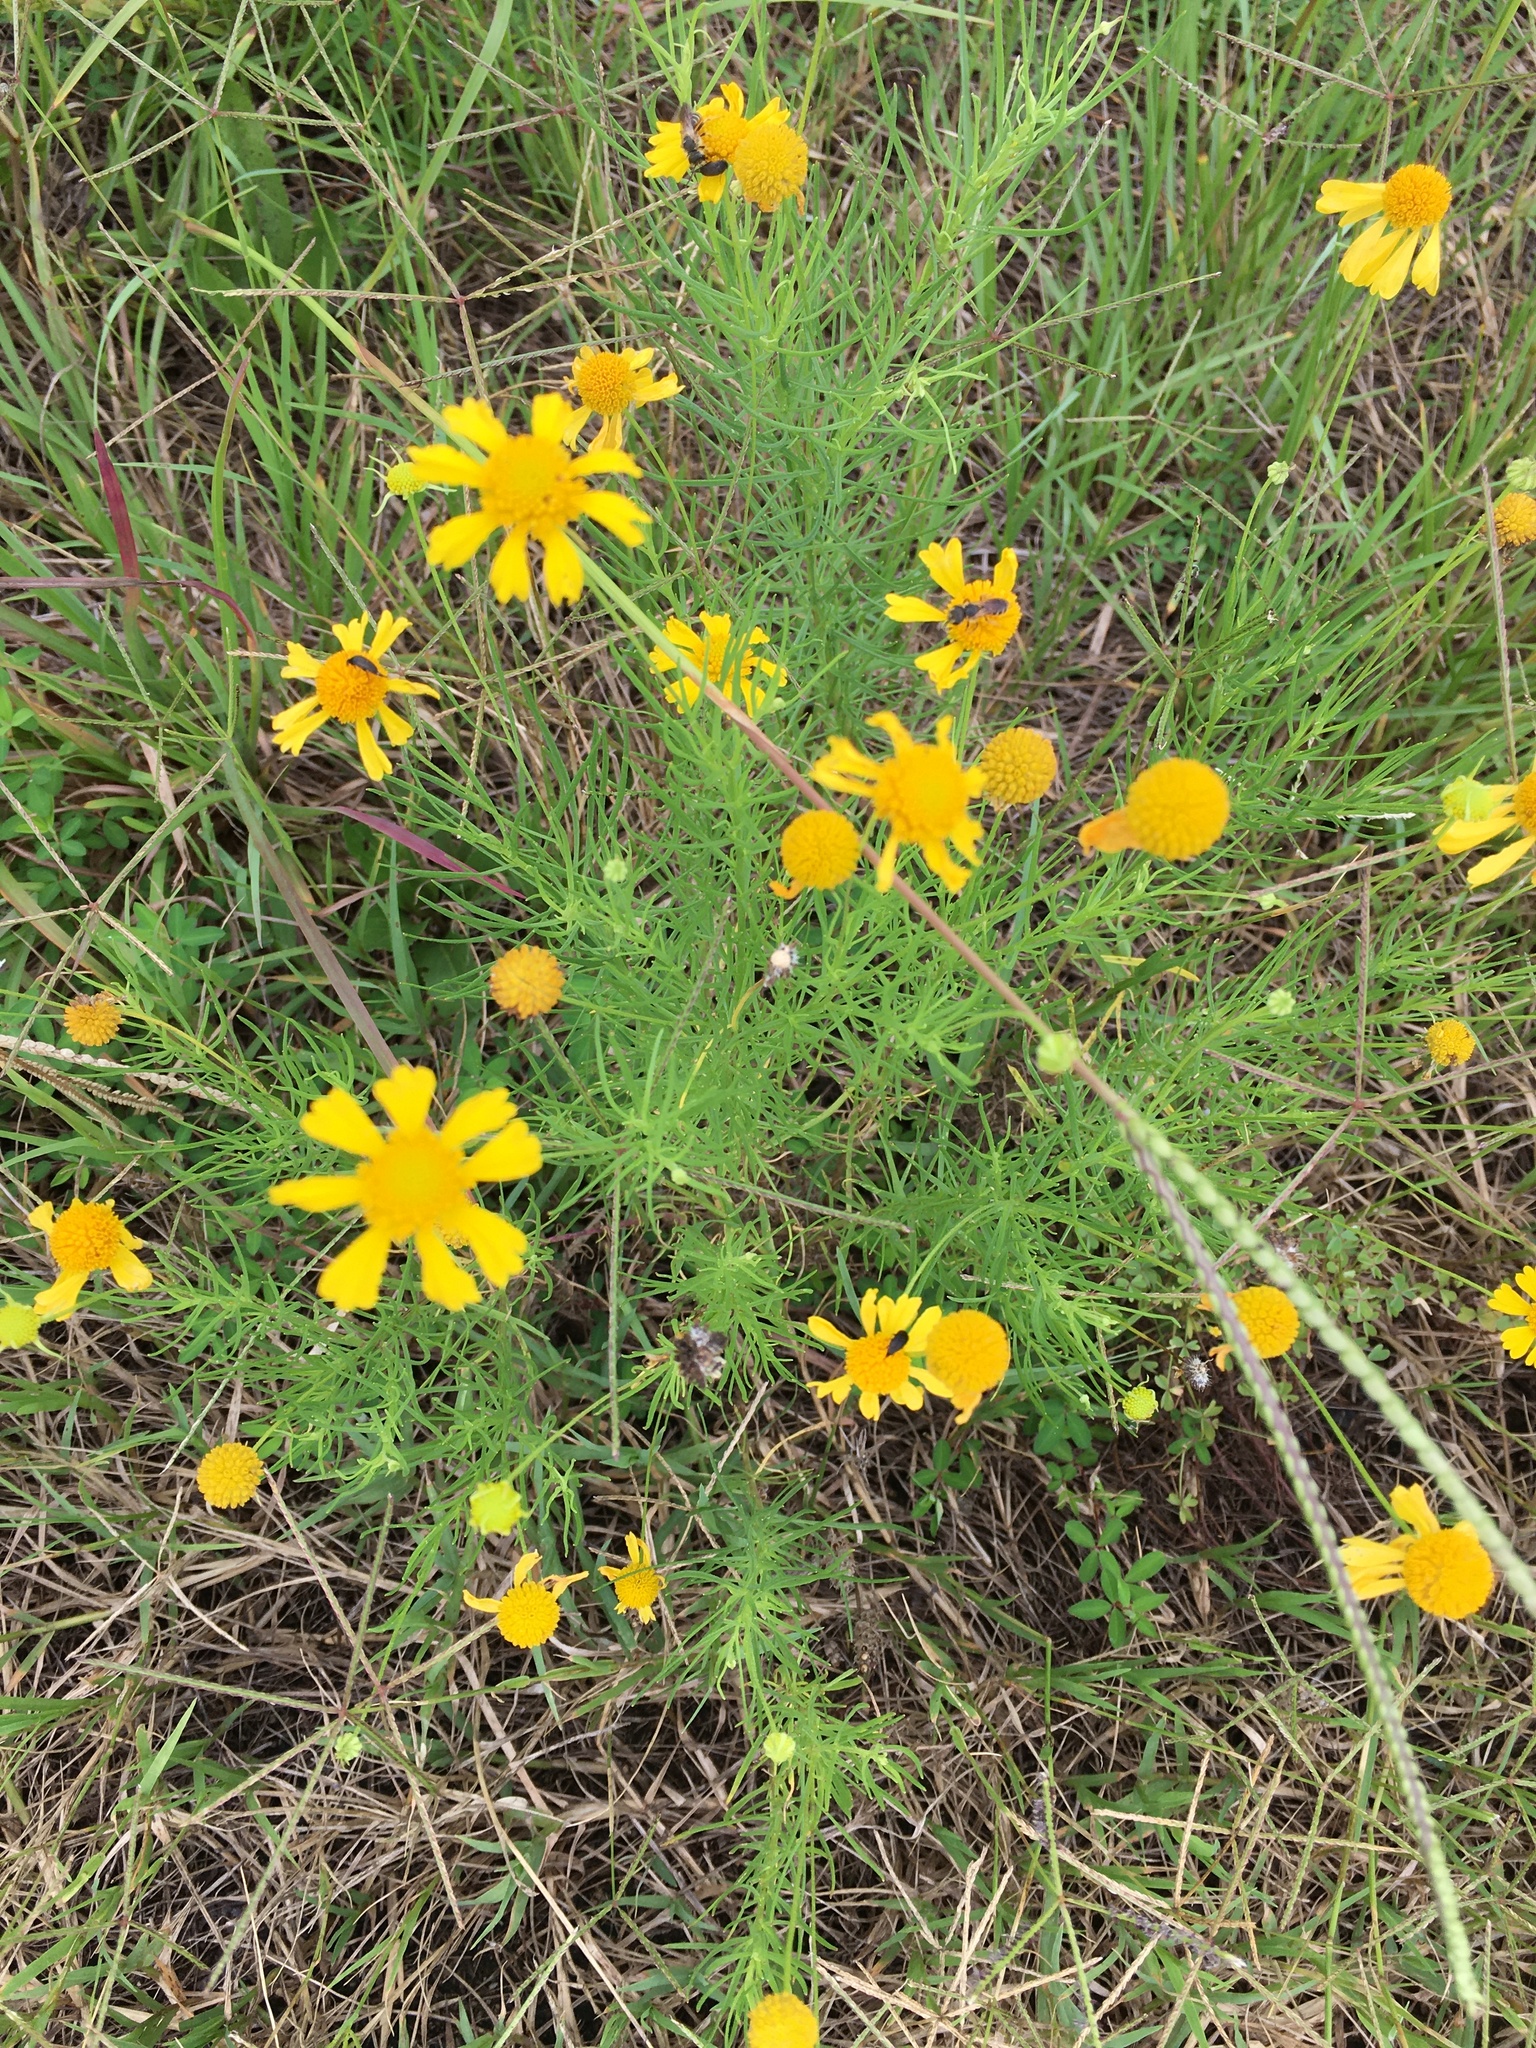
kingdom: Plantae
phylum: Tracheophyta
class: Magnoliopsida
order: Asterales
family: Asteraceae
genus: Helenium
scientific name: Helenium amarum
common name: Bitter sneezeweed
